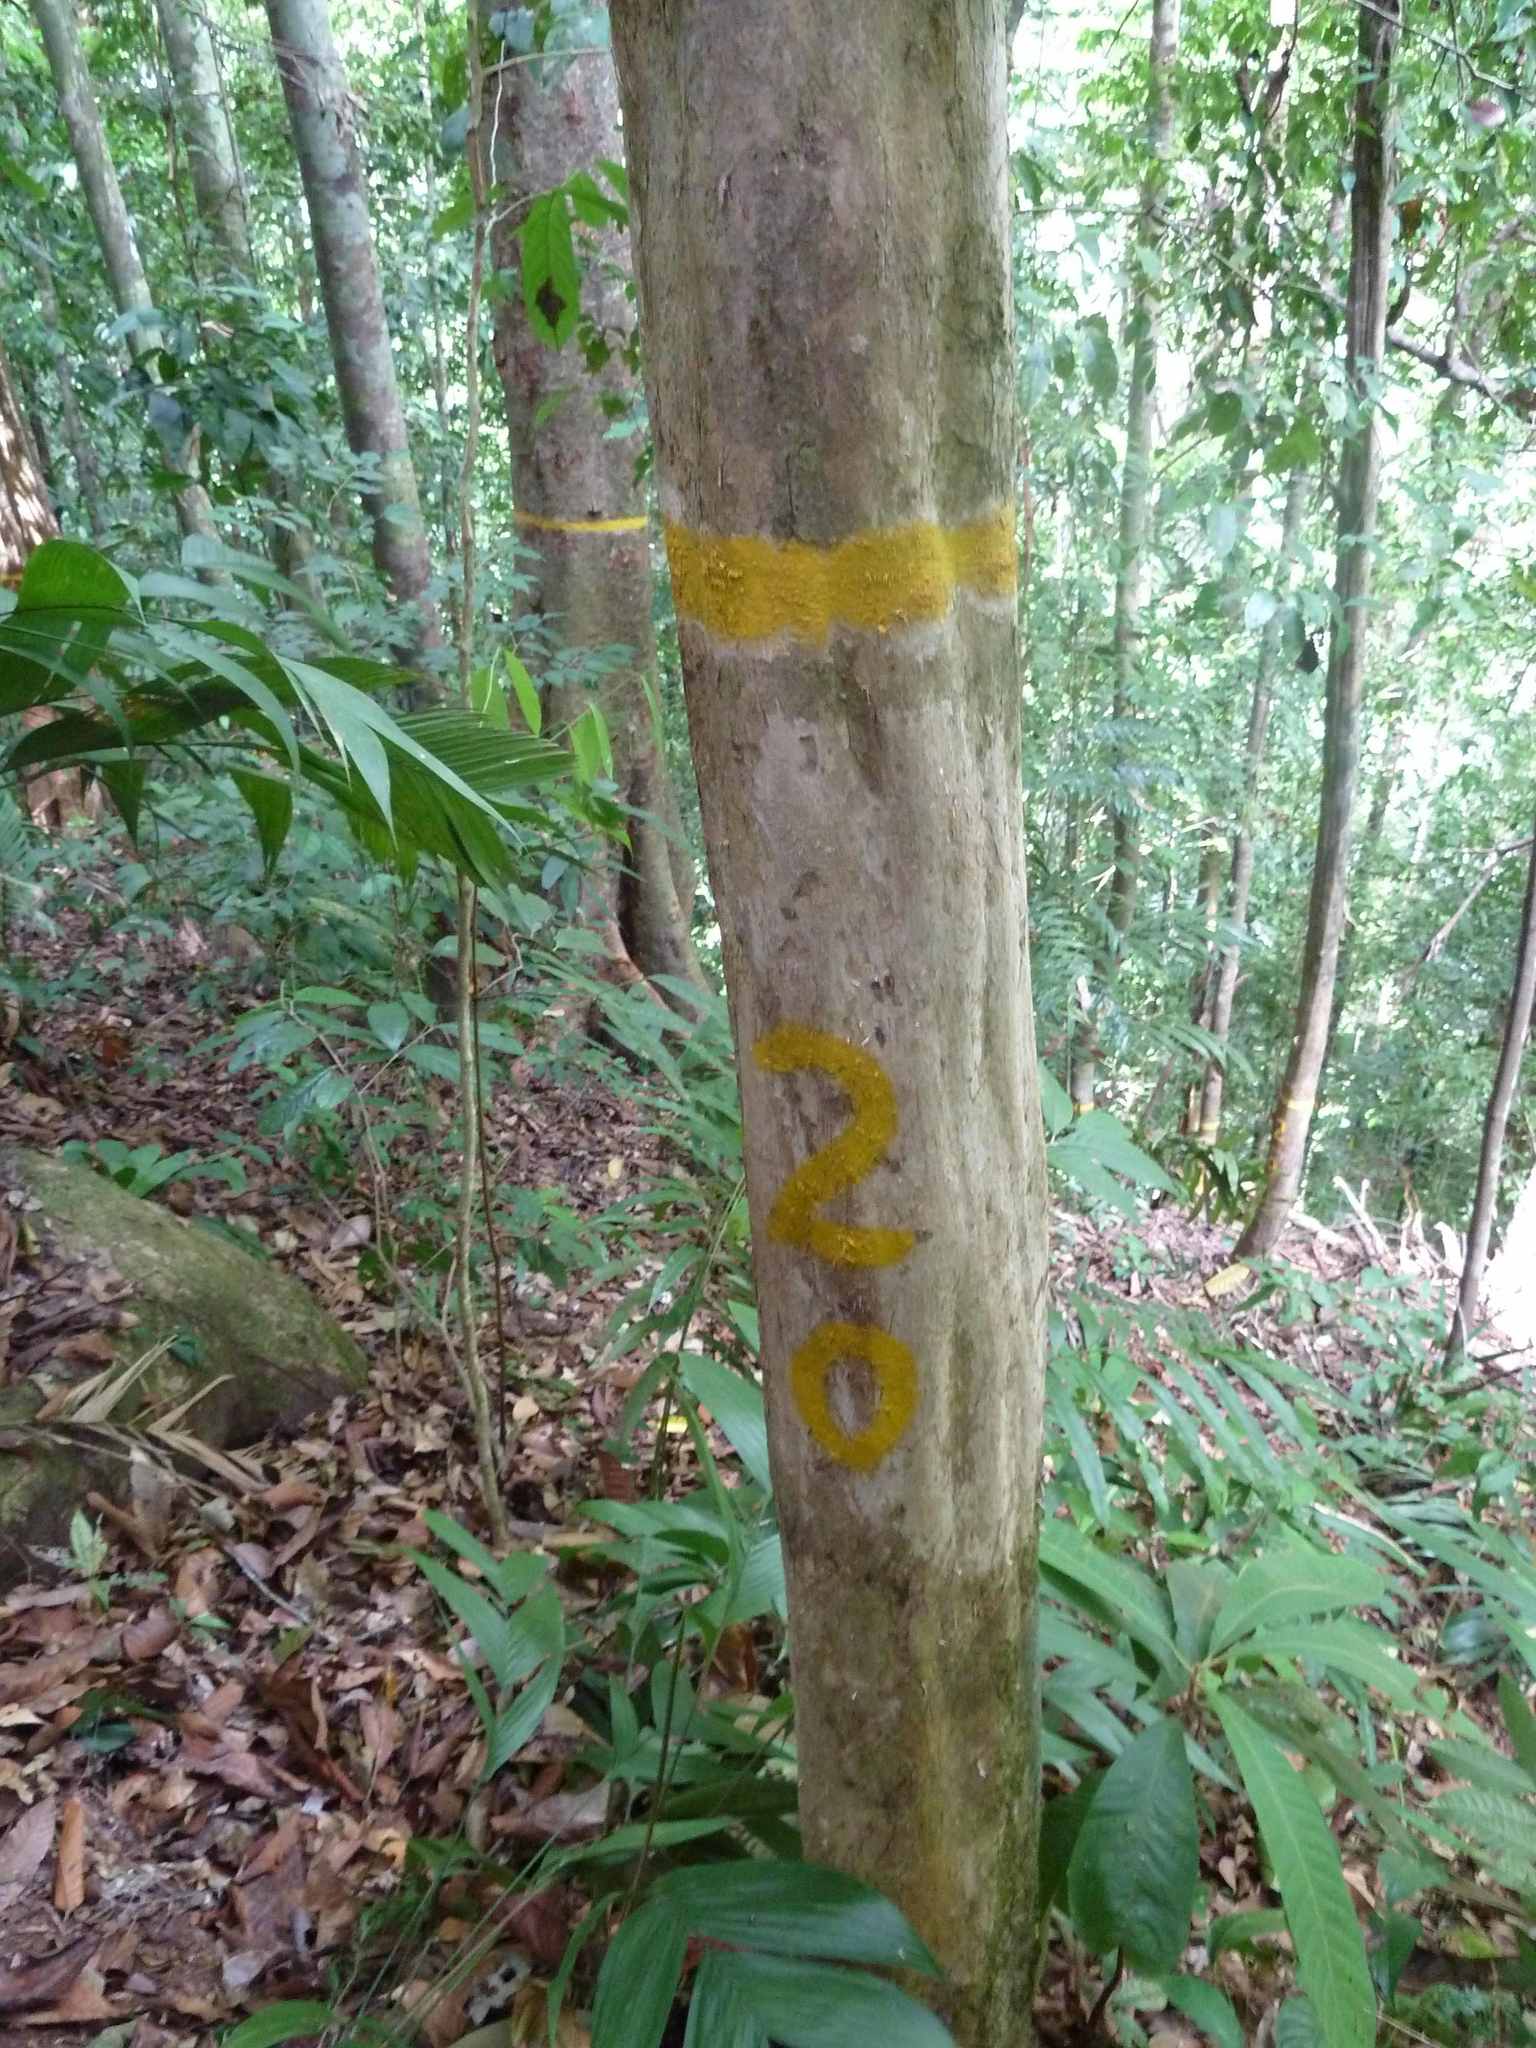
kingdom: Plantae
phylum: Tracheophyta
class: Magnoliopsida
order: Lamiales
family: Bignoniaceae
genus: Amphitecna
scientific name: Amphitecna isthmica
